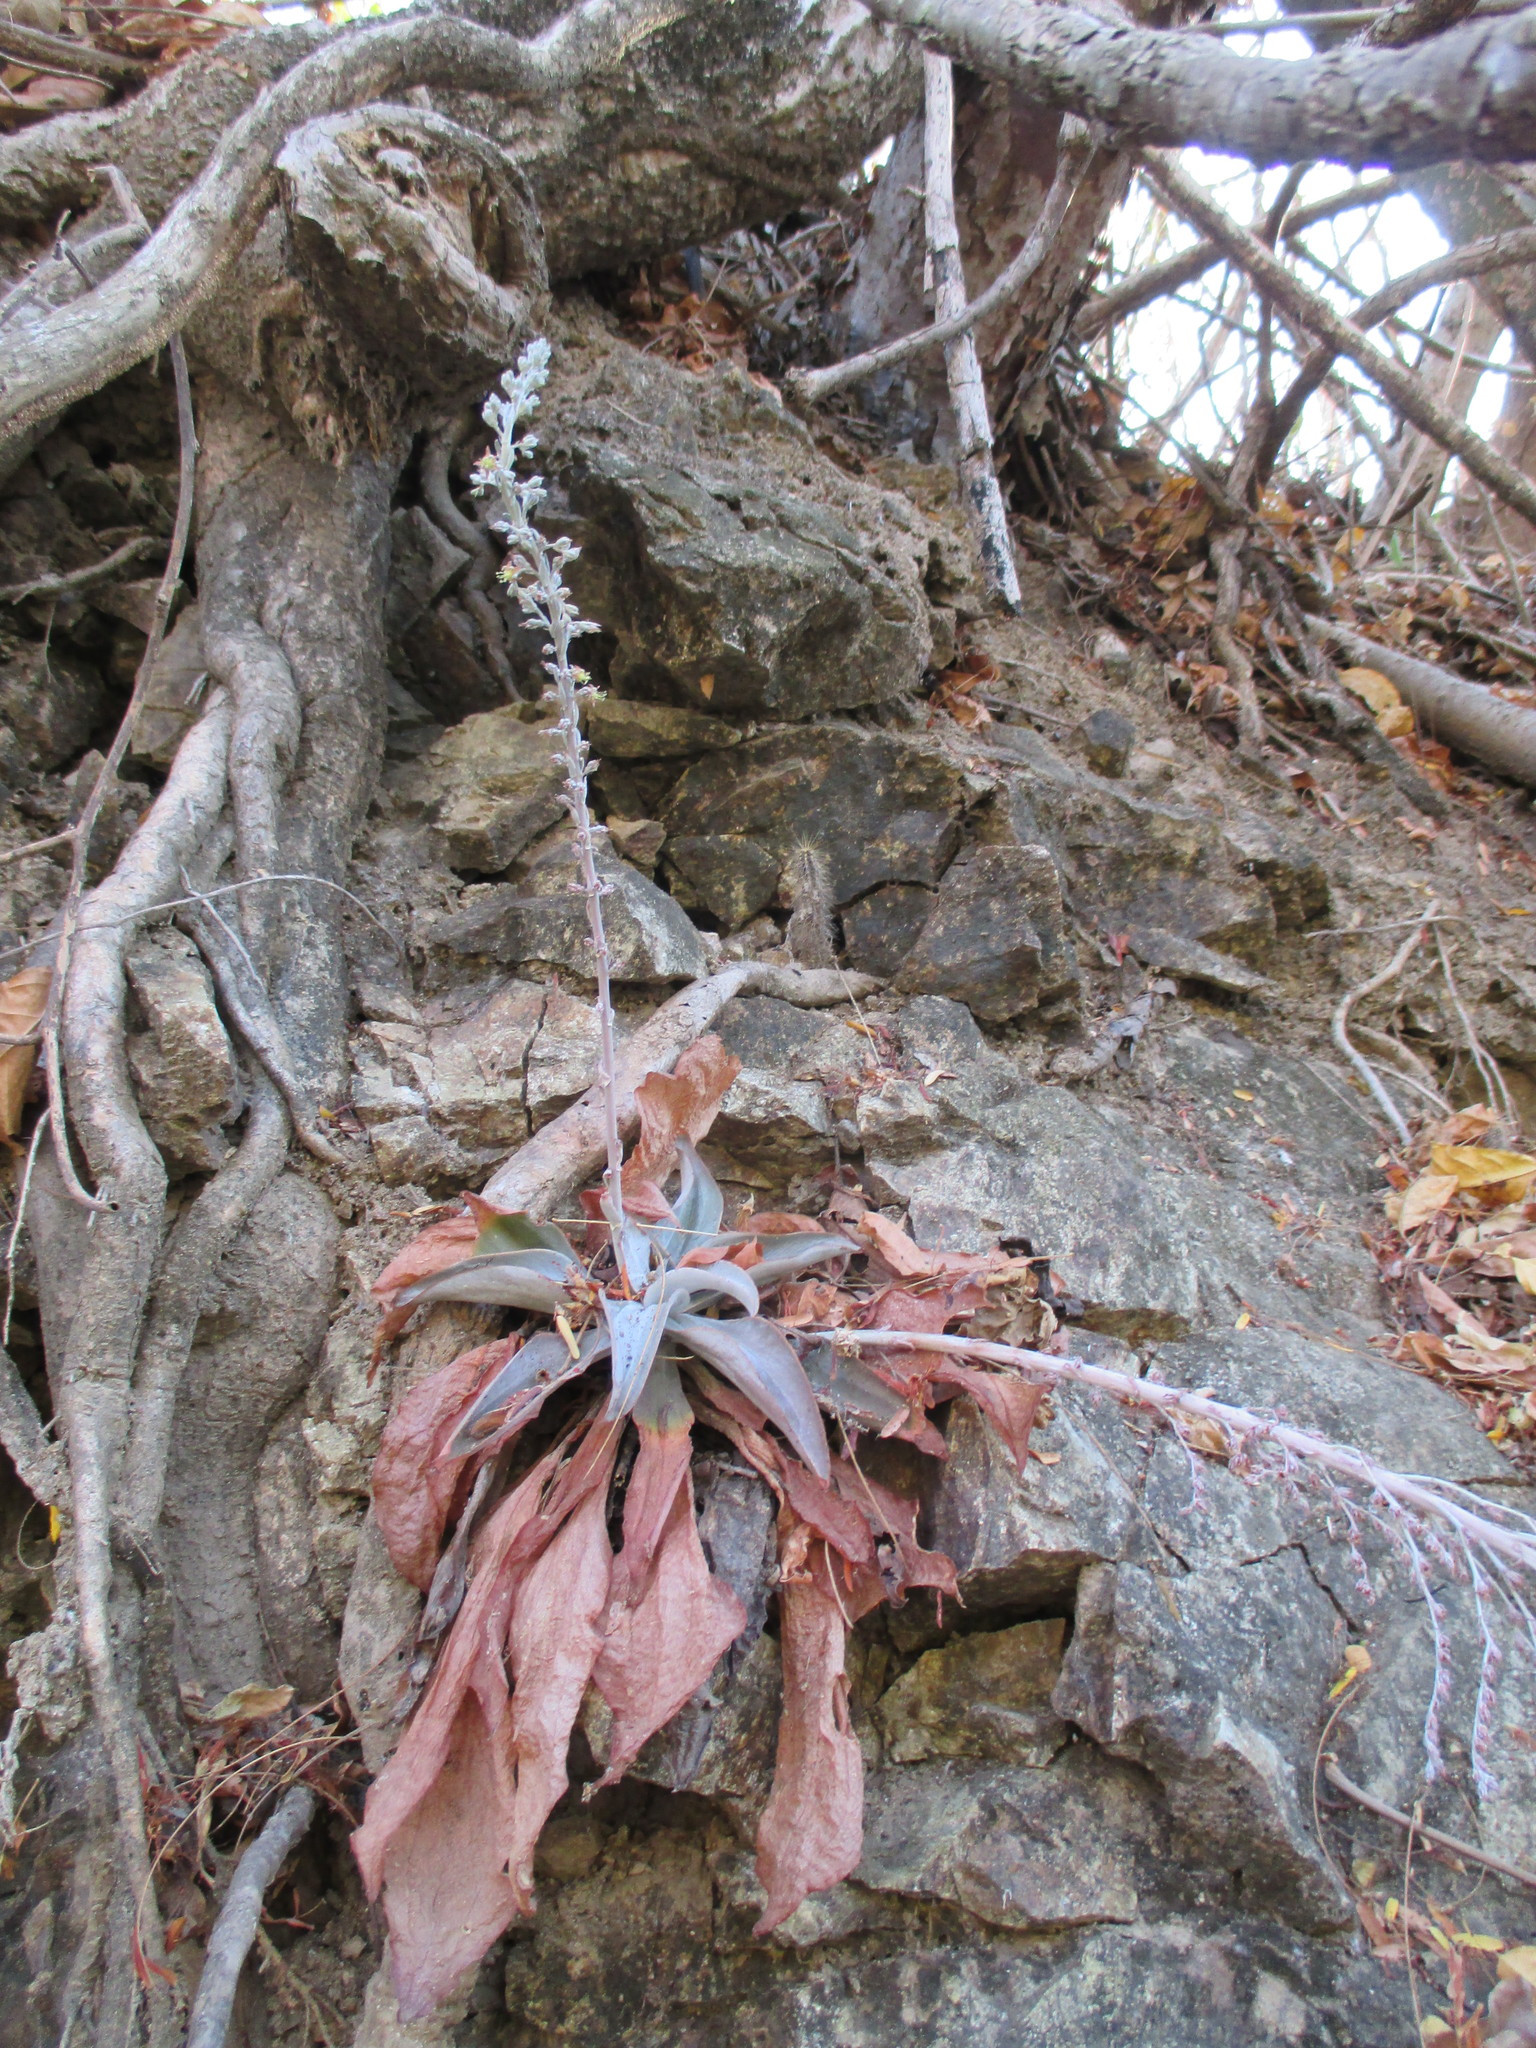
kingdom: Plantae
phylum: Tracheophyta
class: Magnoliopsida
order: Saxifragales
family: Crassulaceae
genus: Thompsonella
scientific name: Thompsonella platyphylla
